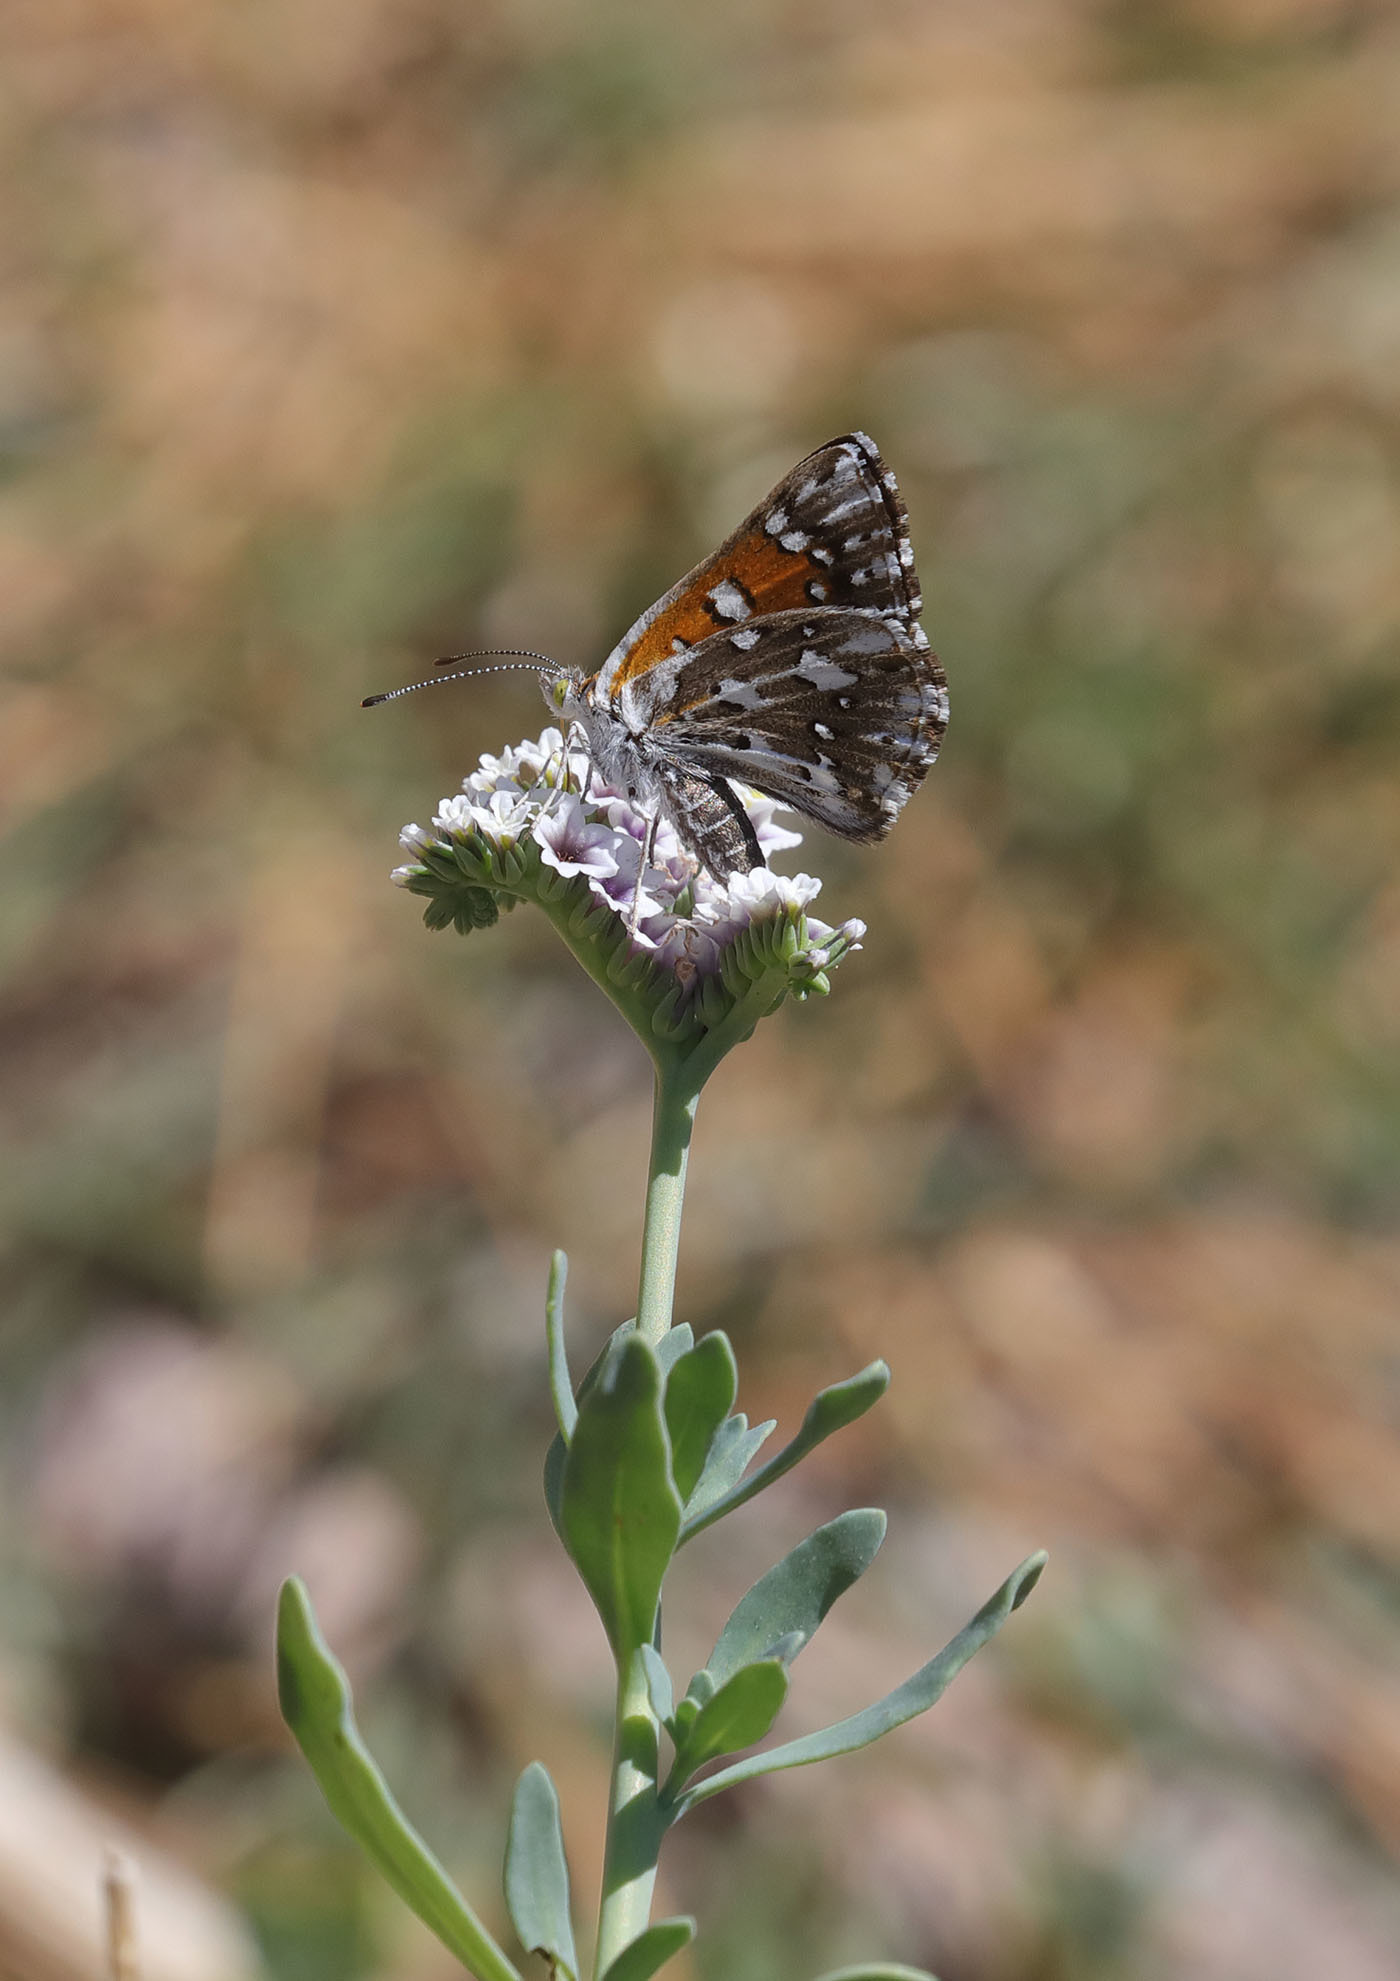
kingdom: Animalia
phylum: Arthropoda
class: Insecta
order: Lepidoptera
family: Riodinidae
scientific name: Riodinidae
